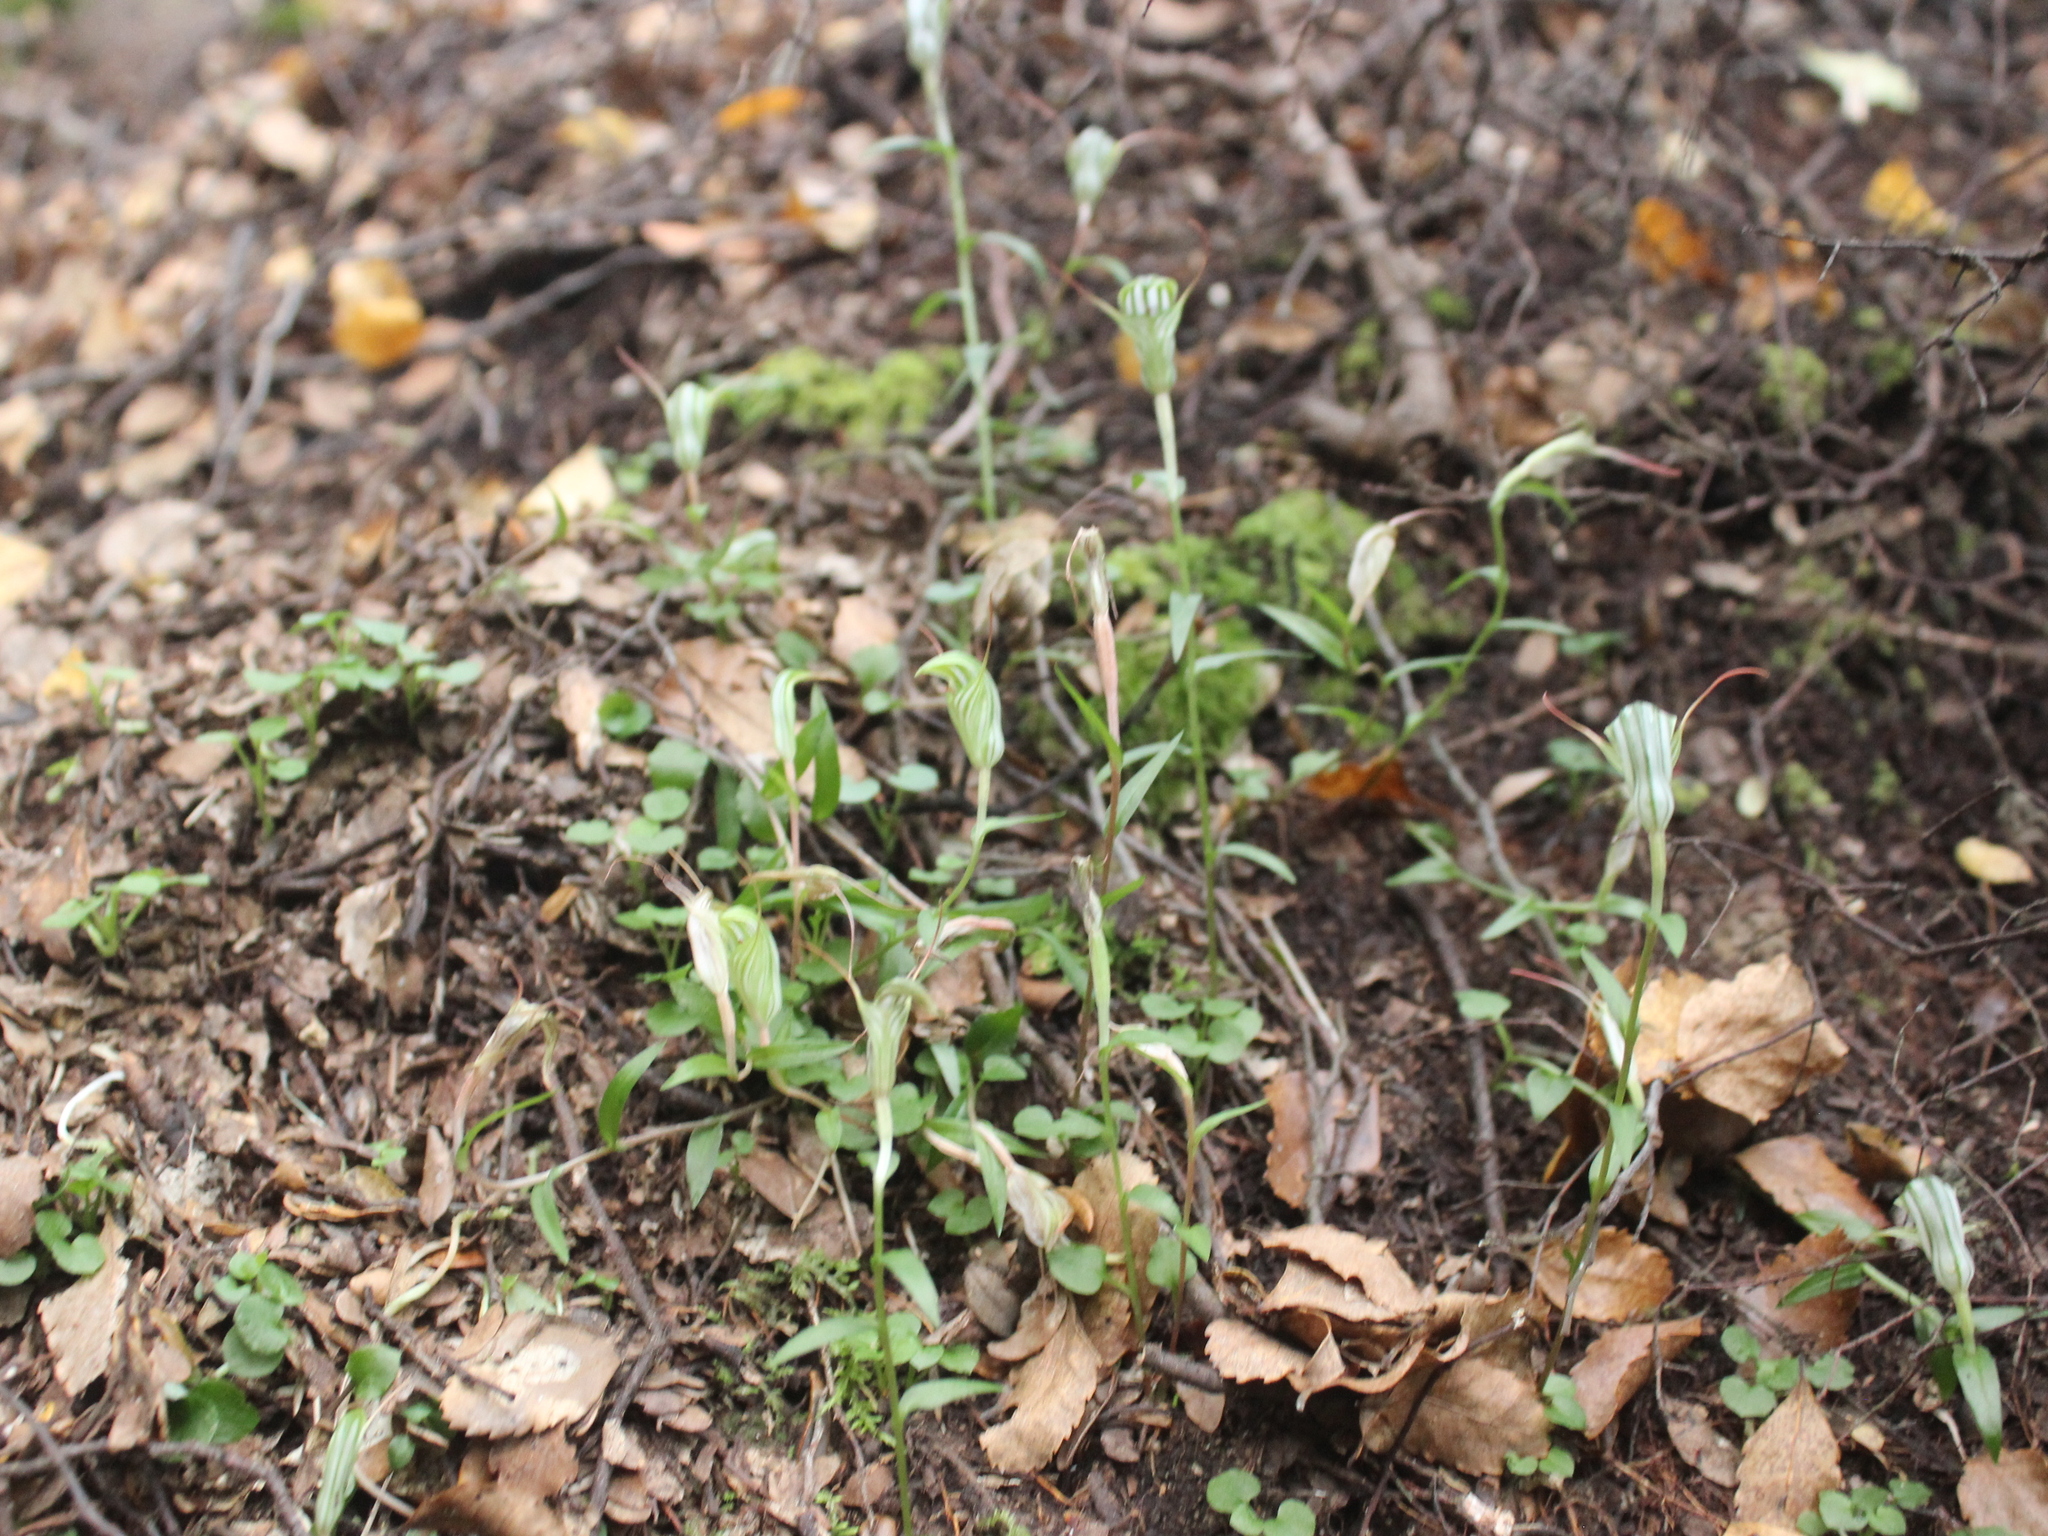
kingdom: Plantae
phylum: Tracheophyta
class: Liliopsida
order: Asparagales
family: Orchidaceae
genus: Pterostylis
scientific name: Pterostylis alobula
